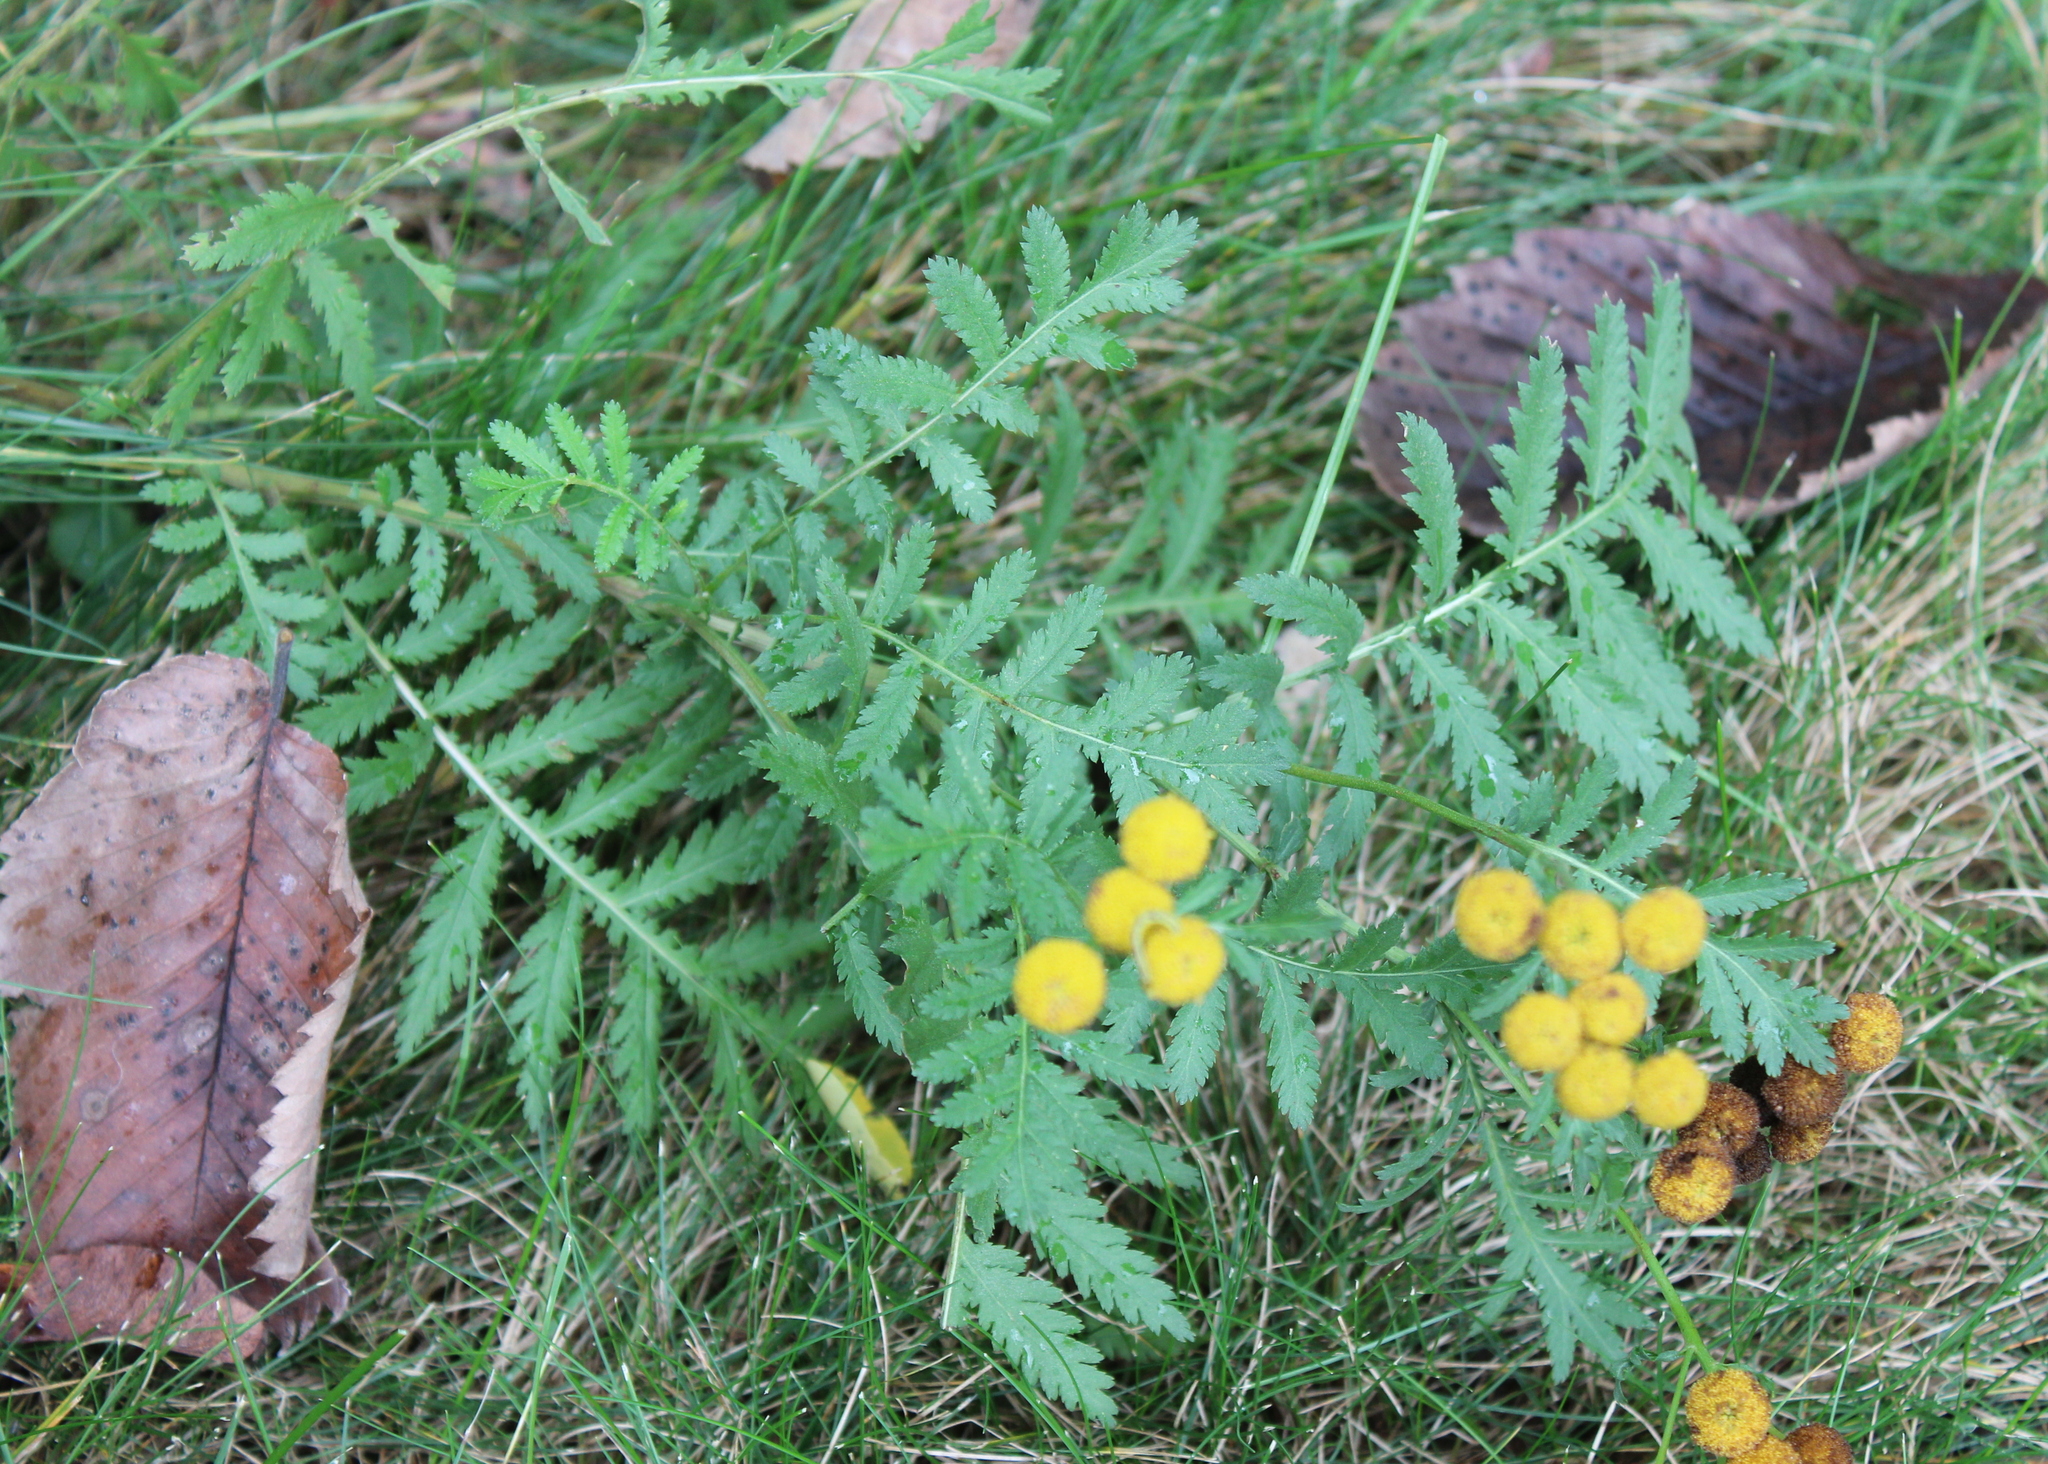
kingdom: Plantae
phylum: Tracheophyta
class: Magnoliopsida
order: Asterales
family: Asteraceae
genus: Tanacetum
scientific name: Tanacetum vulgare
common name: Common tansy
